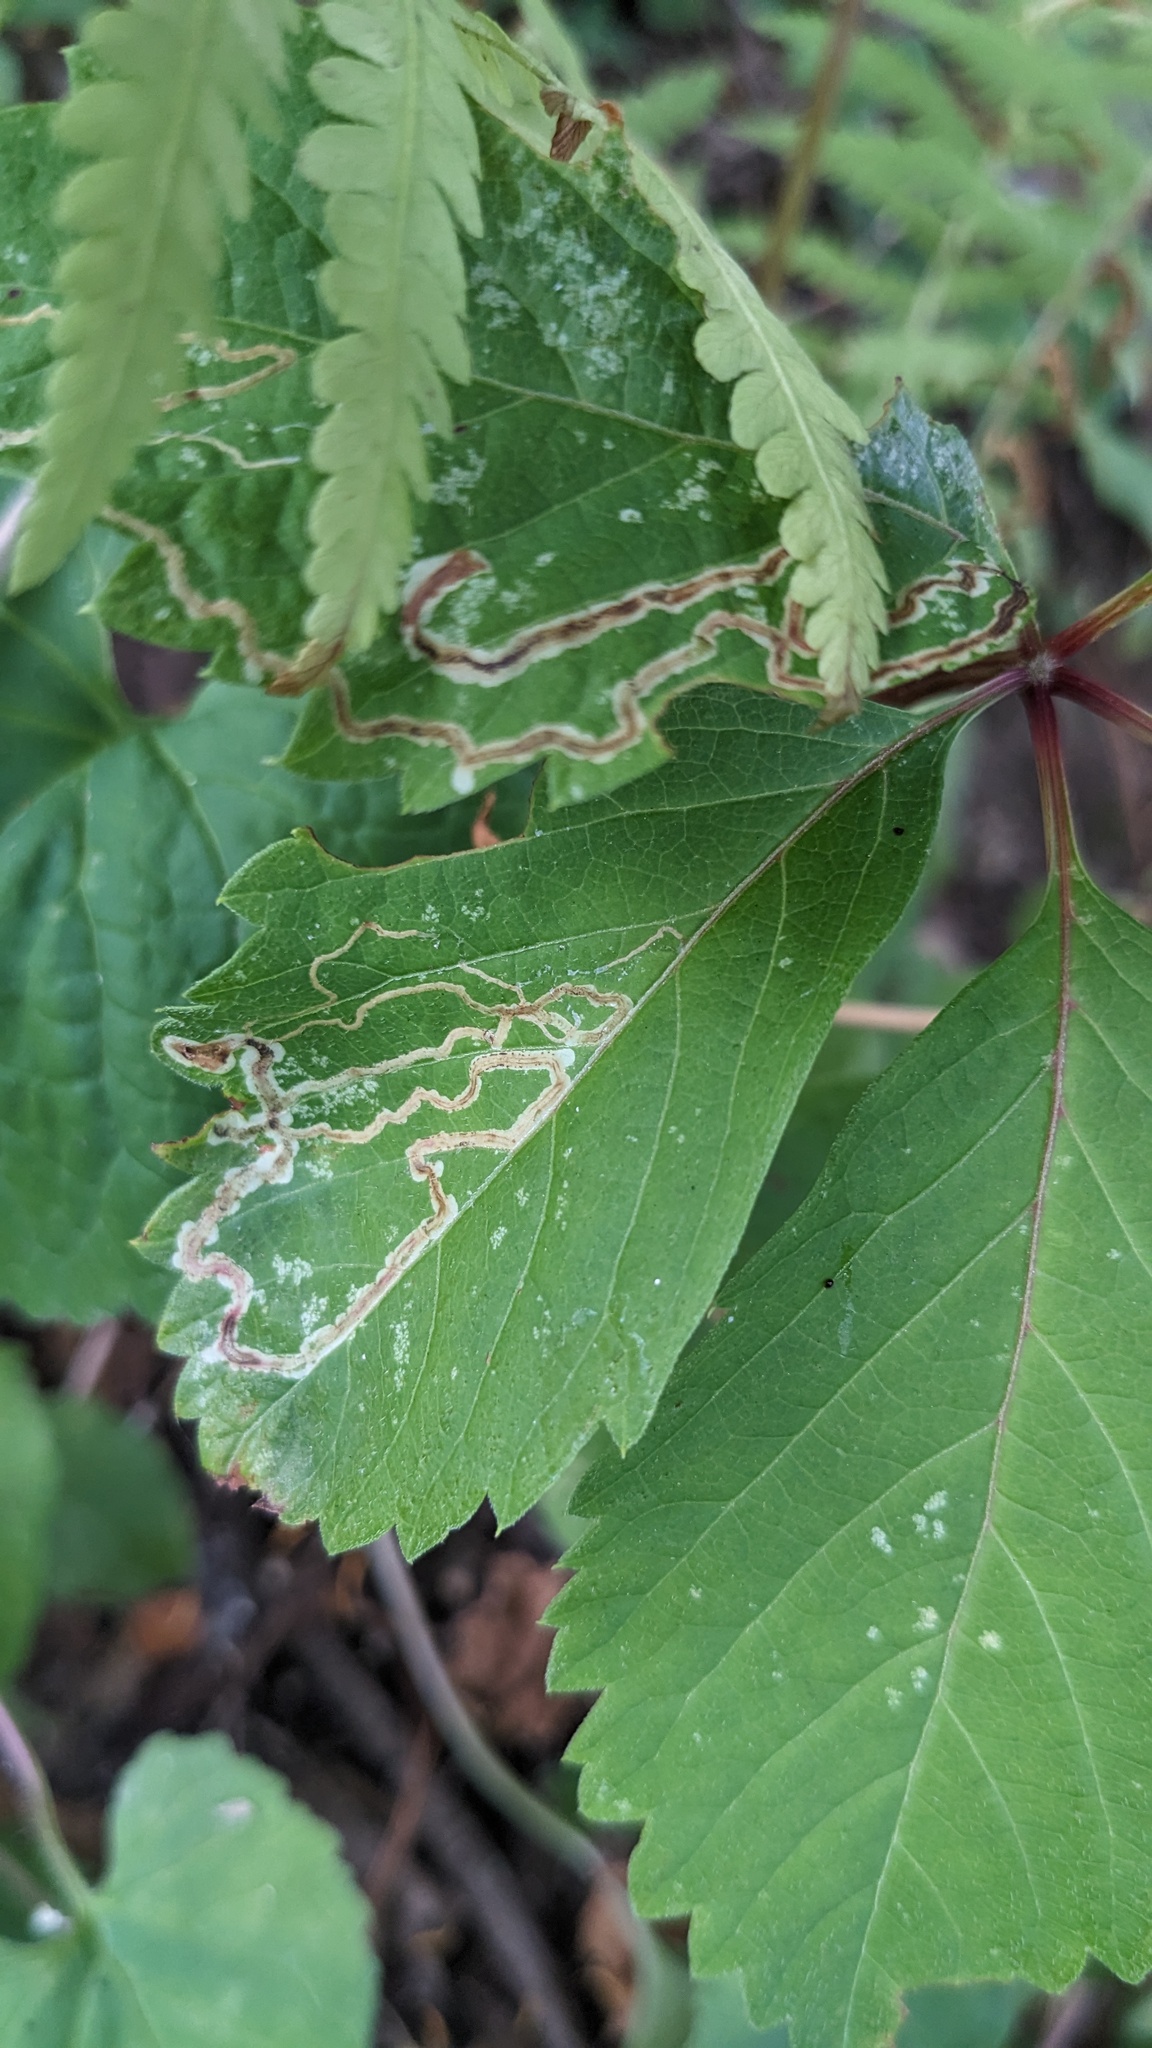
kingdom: Animalia
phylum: Arthropoda
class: Insecta
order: Lepidoptera
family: Gracillariidae
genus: Phyllocnistis
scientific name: Phyllocnistis vitifoliella
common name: Grape leaf-miner moth
